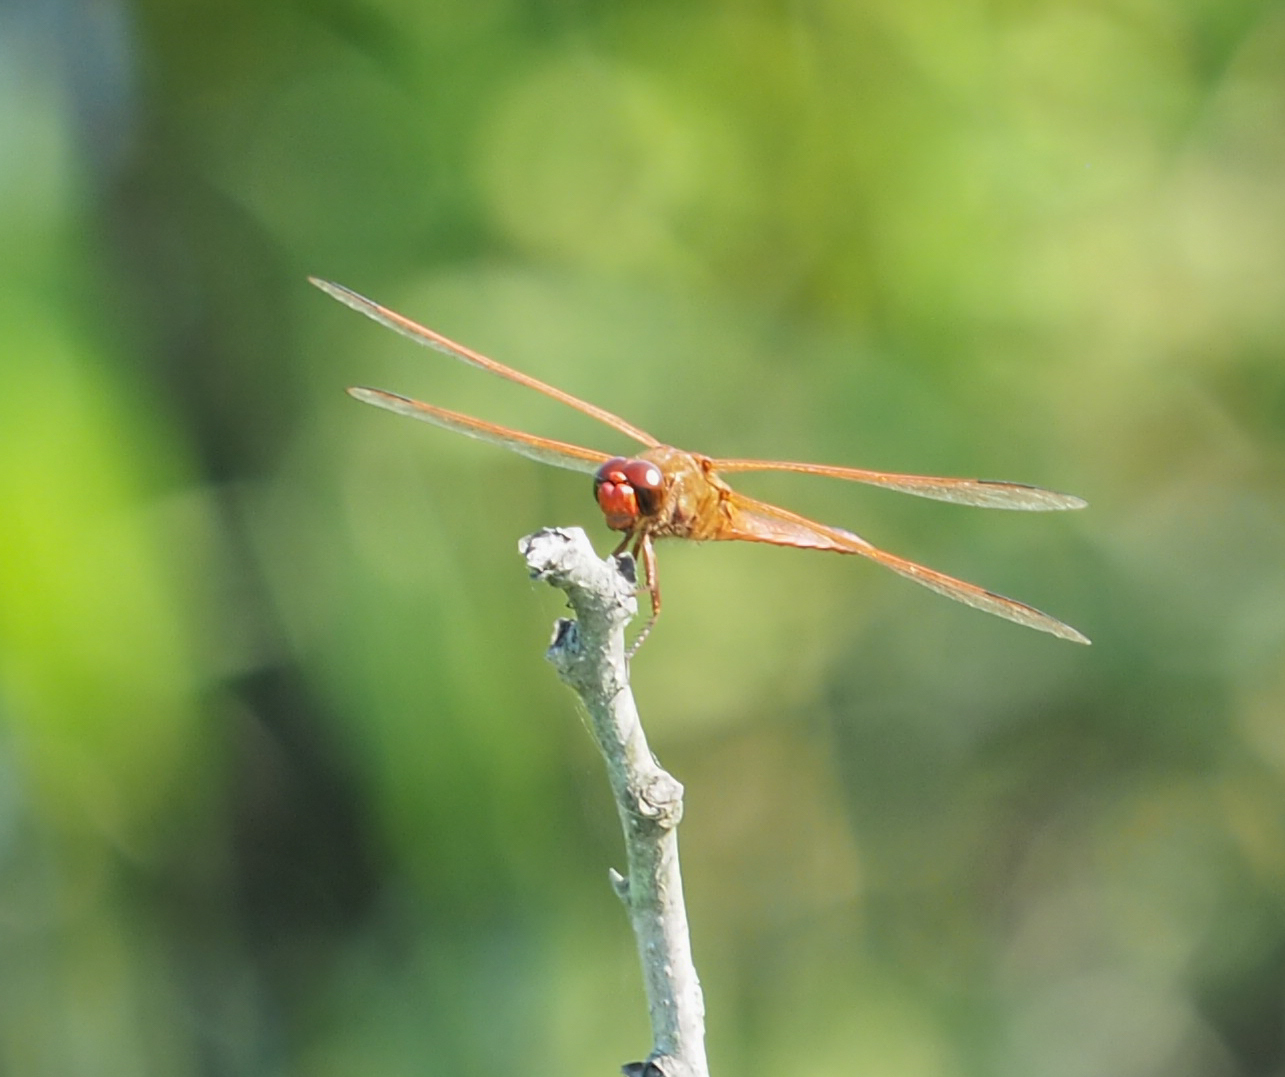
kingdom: Animalia
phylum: Arthropoda
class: Insecta
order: Odonata
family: Libellulidae
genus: Libellula
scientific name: Libellula needhami
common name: Needham's skimmer
